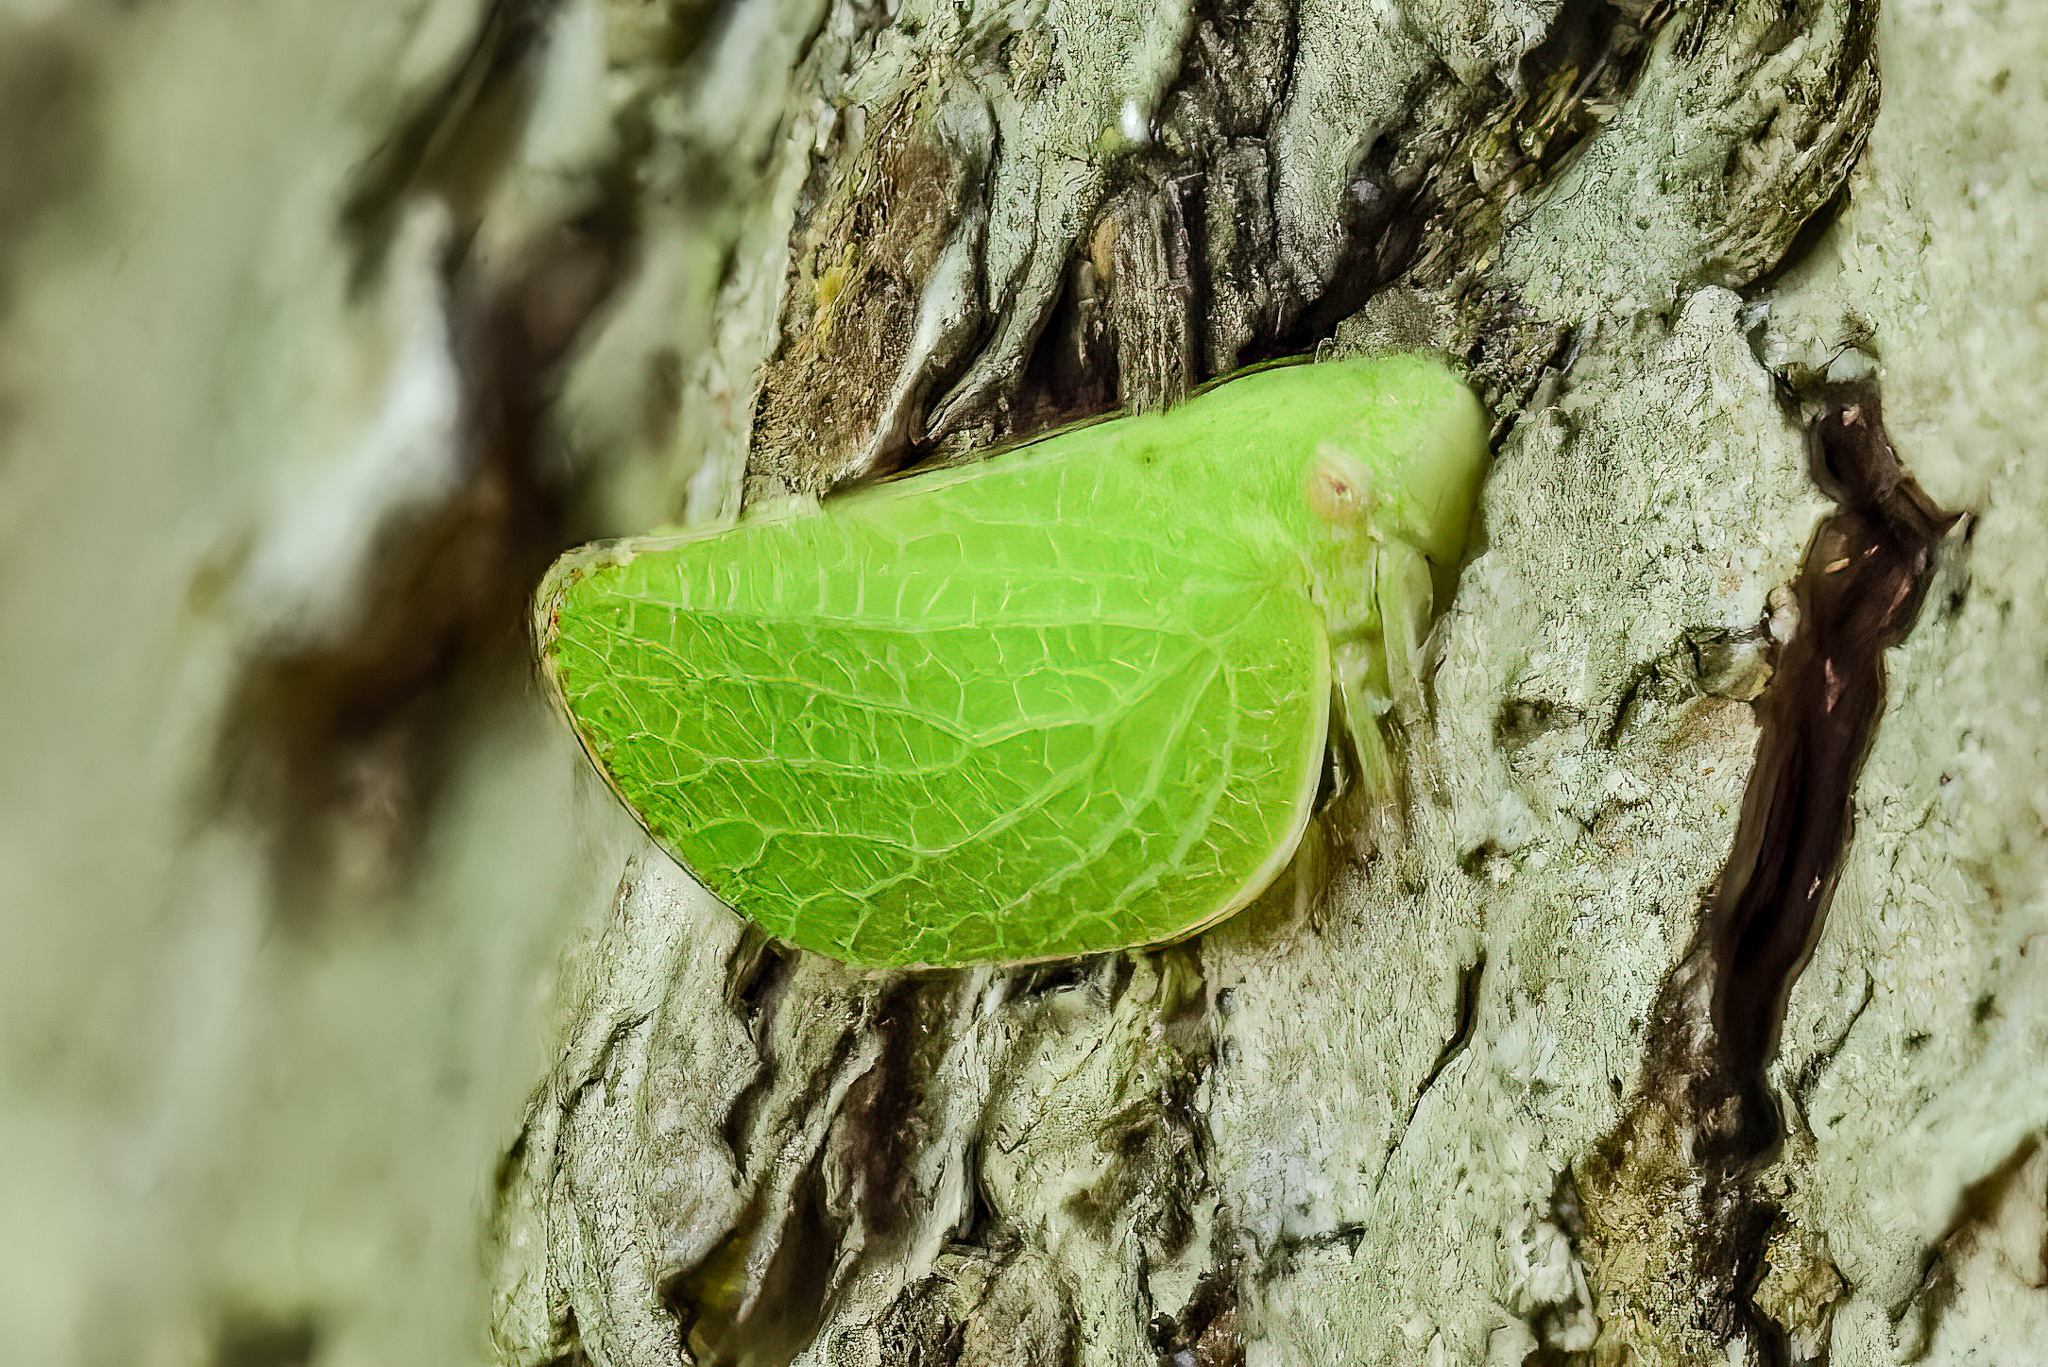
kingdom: Animalia
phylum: Arthropoda
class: Insecta
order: Hemiptera
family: Acanaloniidae
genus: Acanalonia
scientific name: Acanalonia conica
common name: Green cone-headed planthopper
